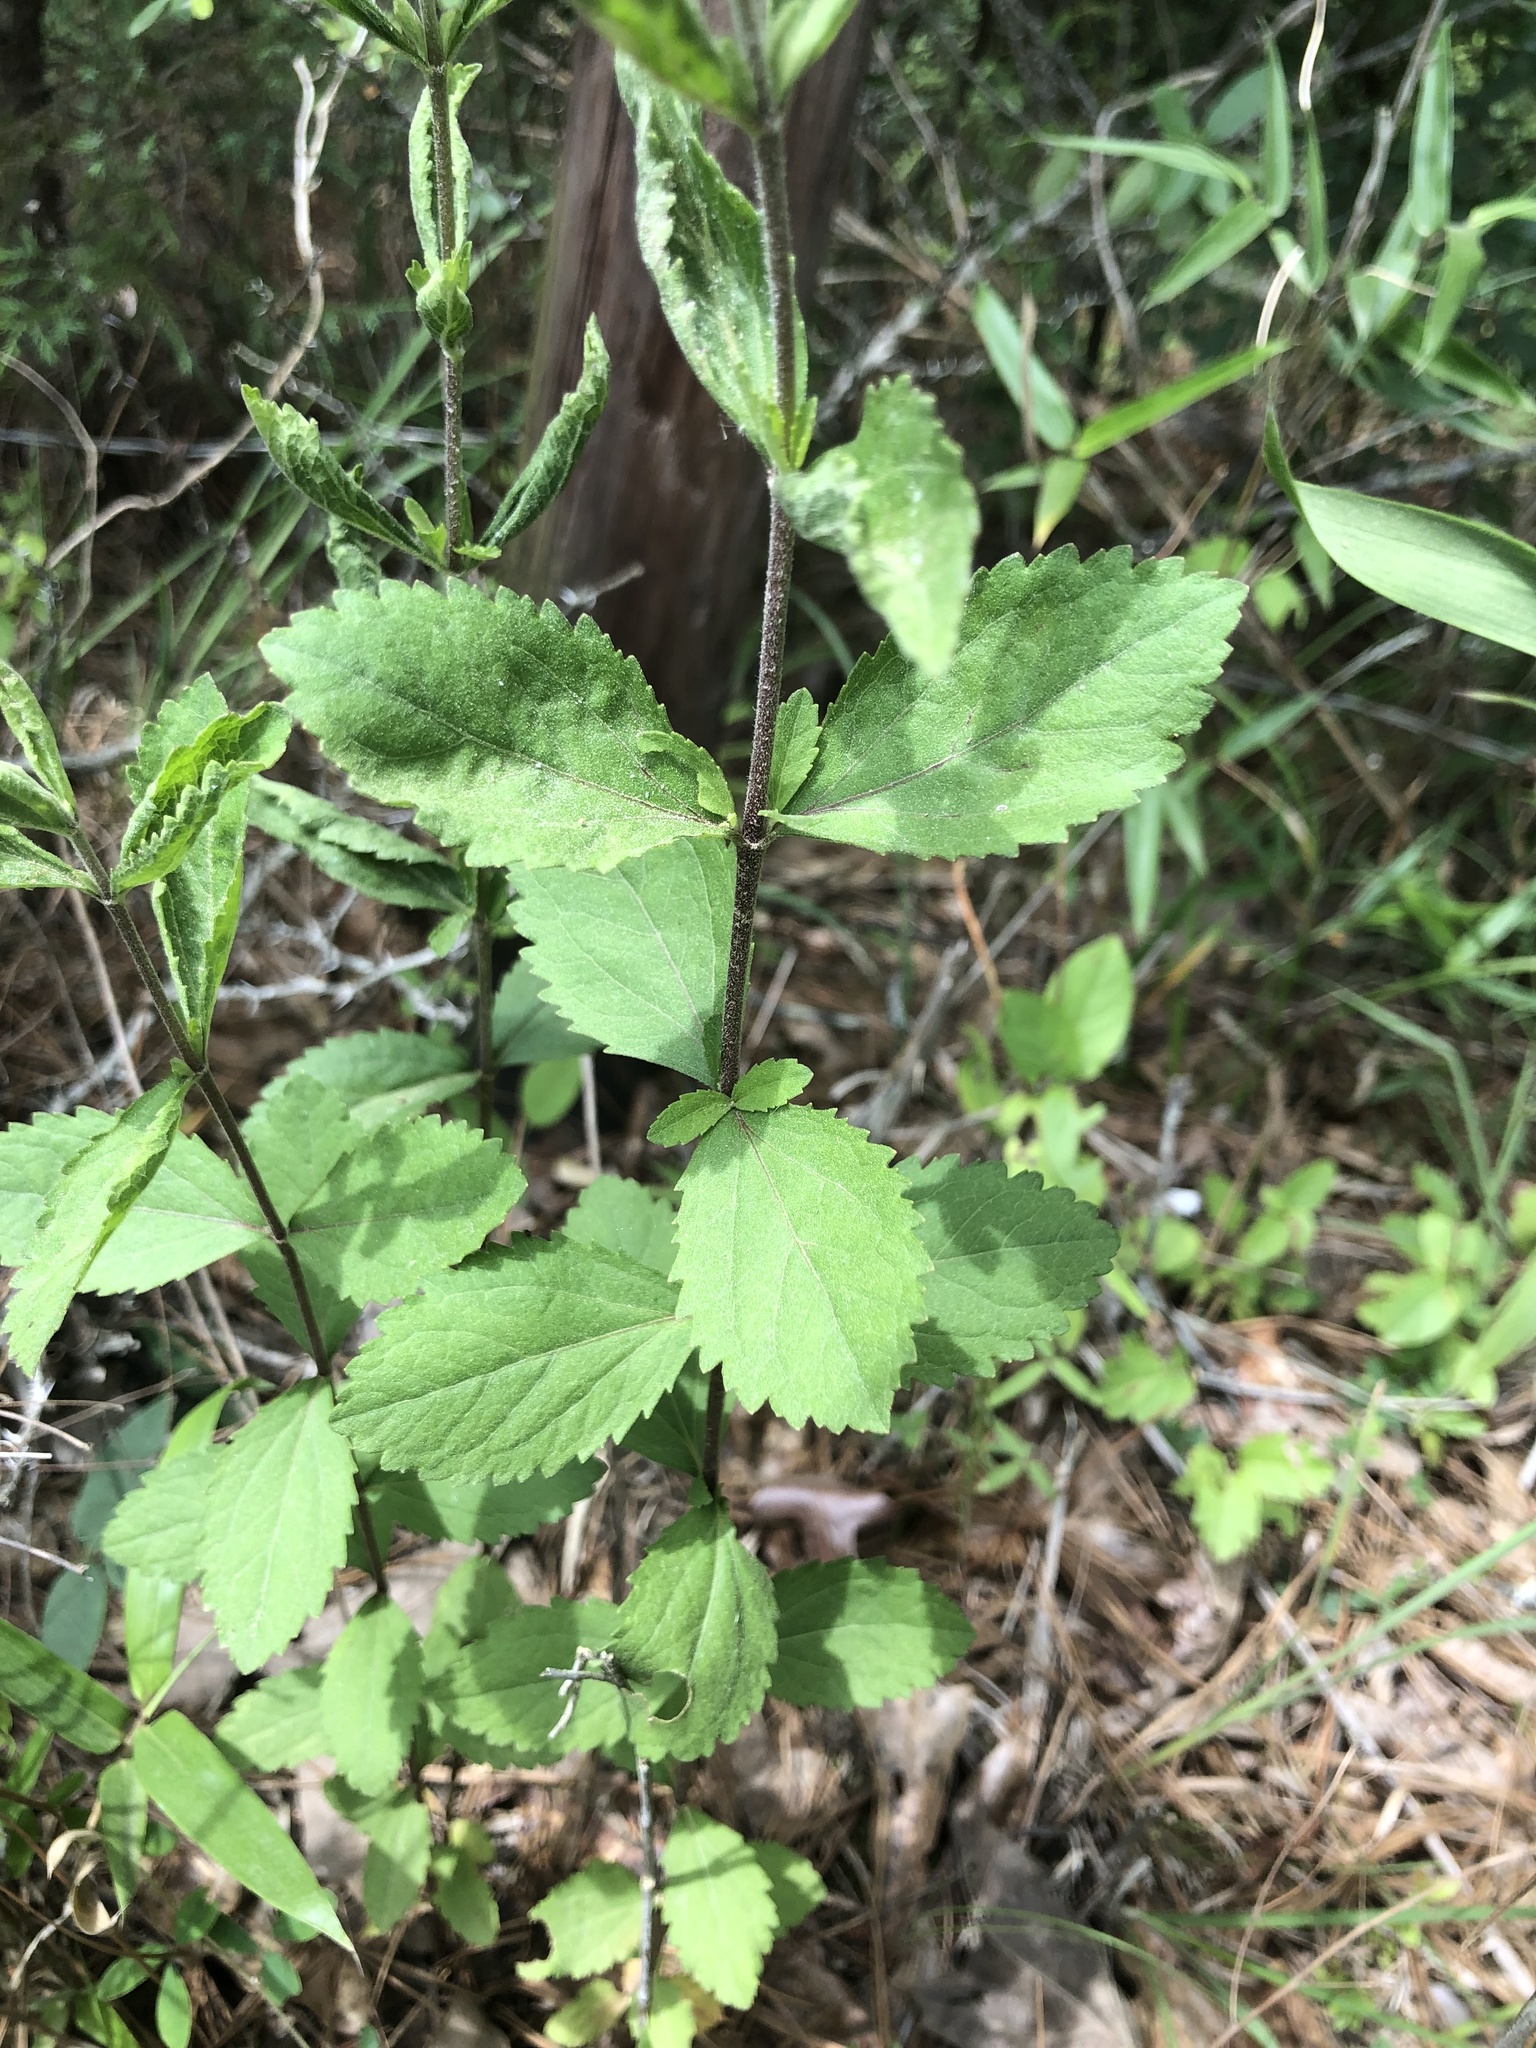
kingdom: Plantae
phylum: Tracheophyta
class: Magnoliopsida
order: Asterales
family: Asteraceae
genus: Eupatorium
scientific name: Eupatorium rotundifolium
